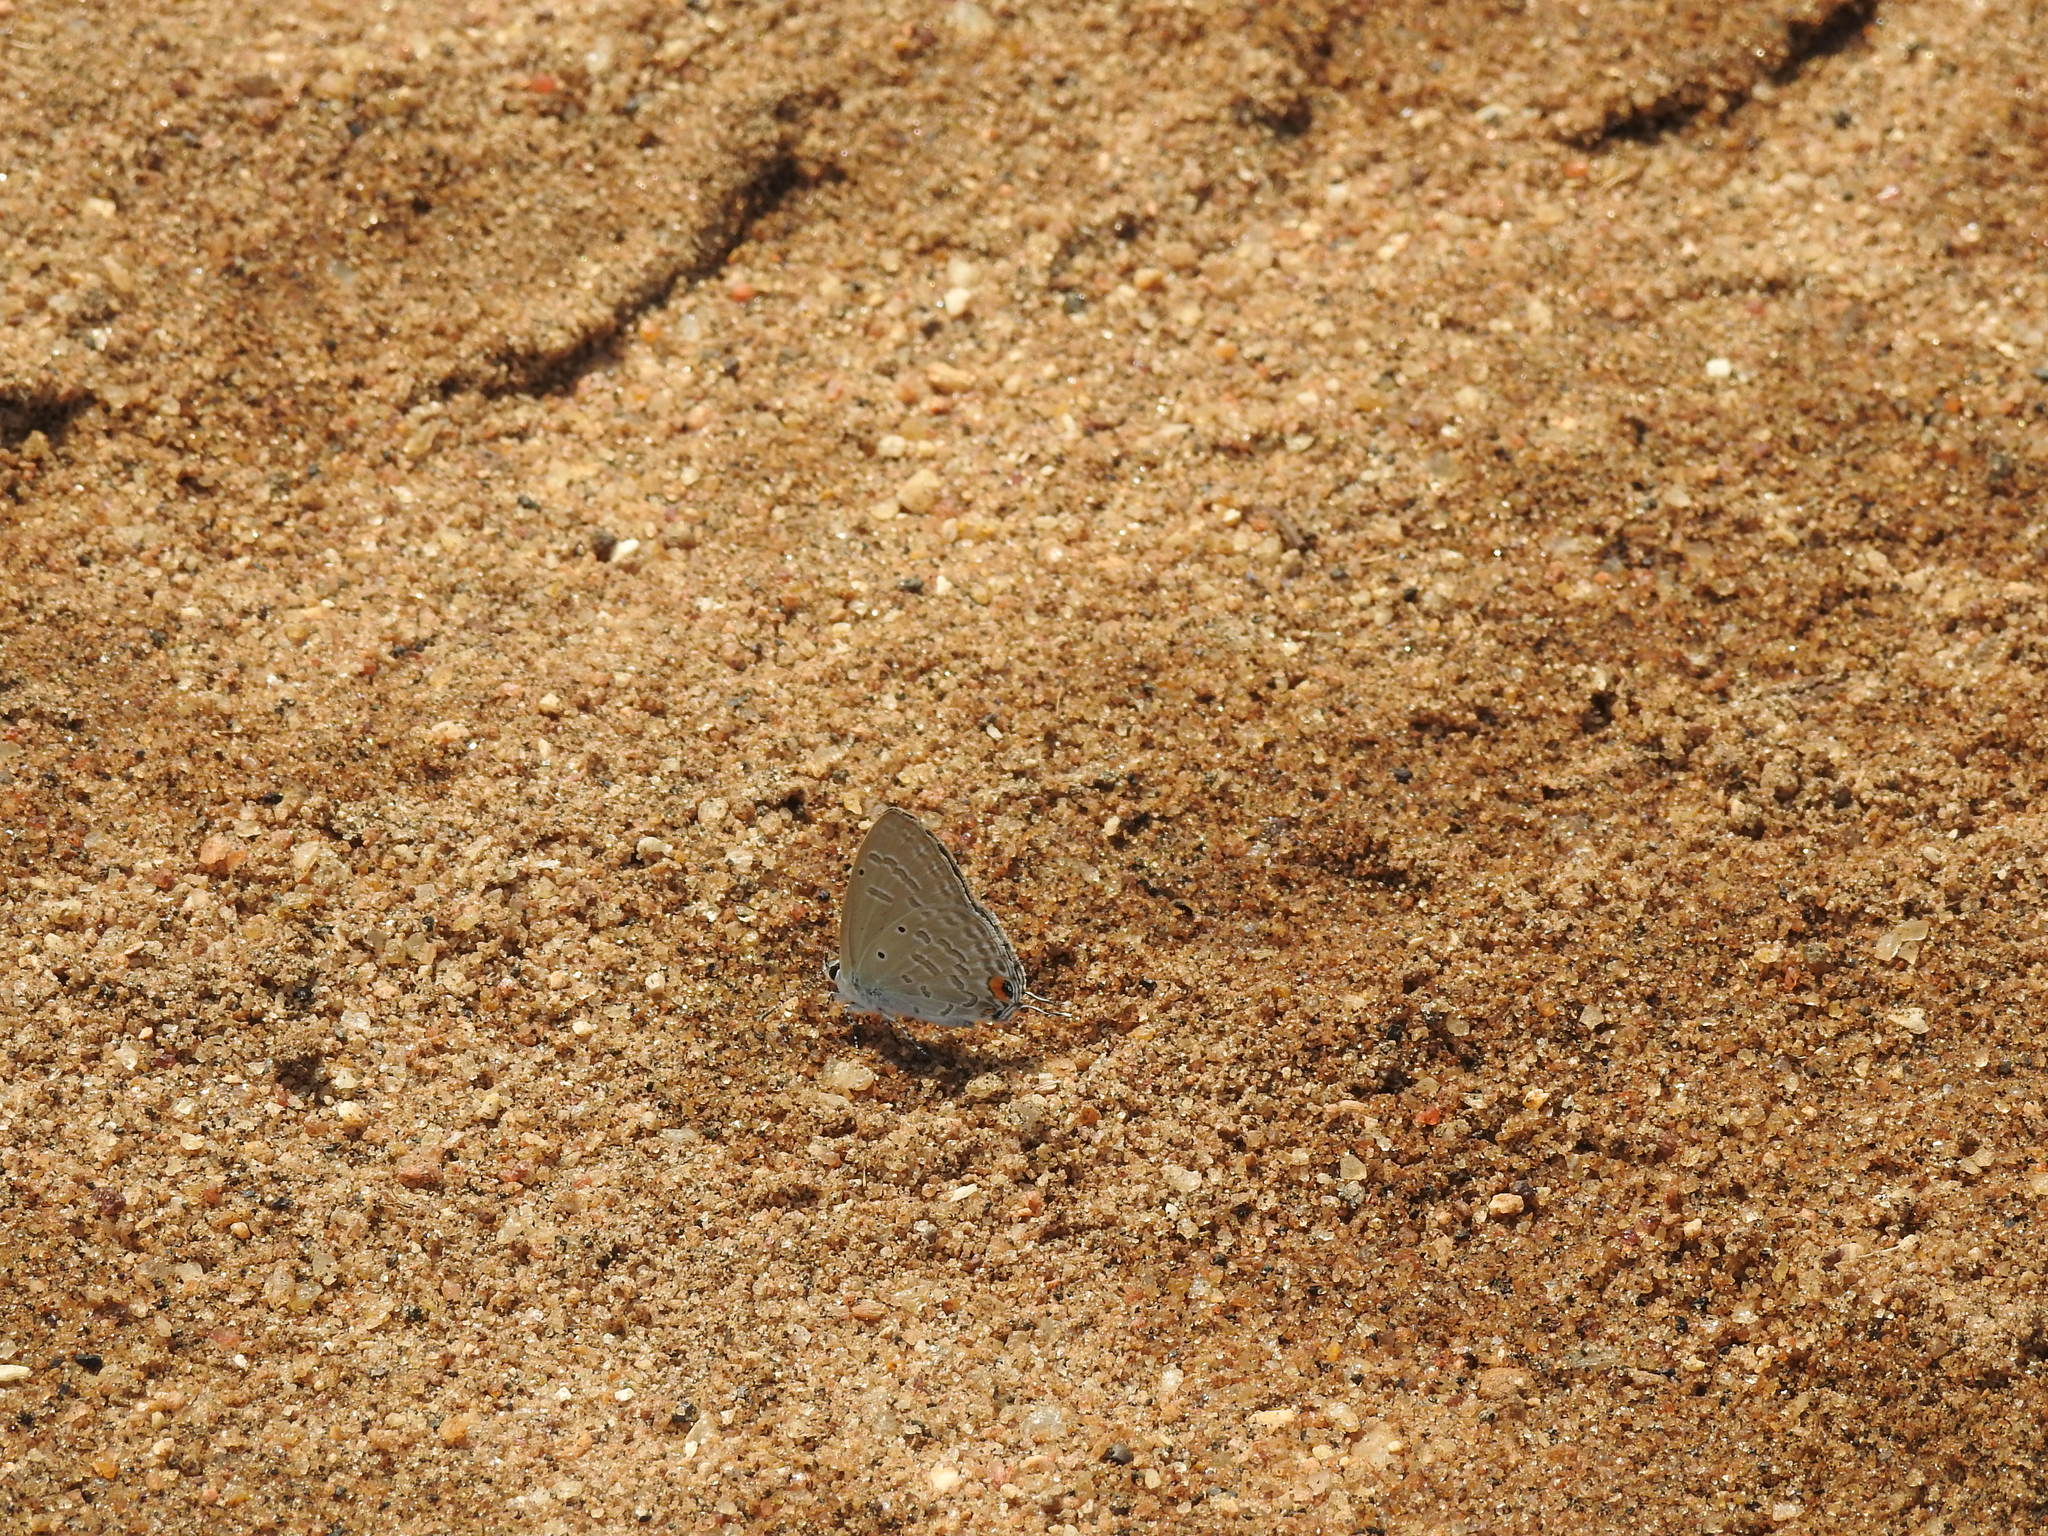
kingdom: Animalia
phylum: Arthropoda
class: Insecta
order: Lepidoptera
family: Lycaenidae
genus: Catochrysops
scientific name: Catochrysops strabo
